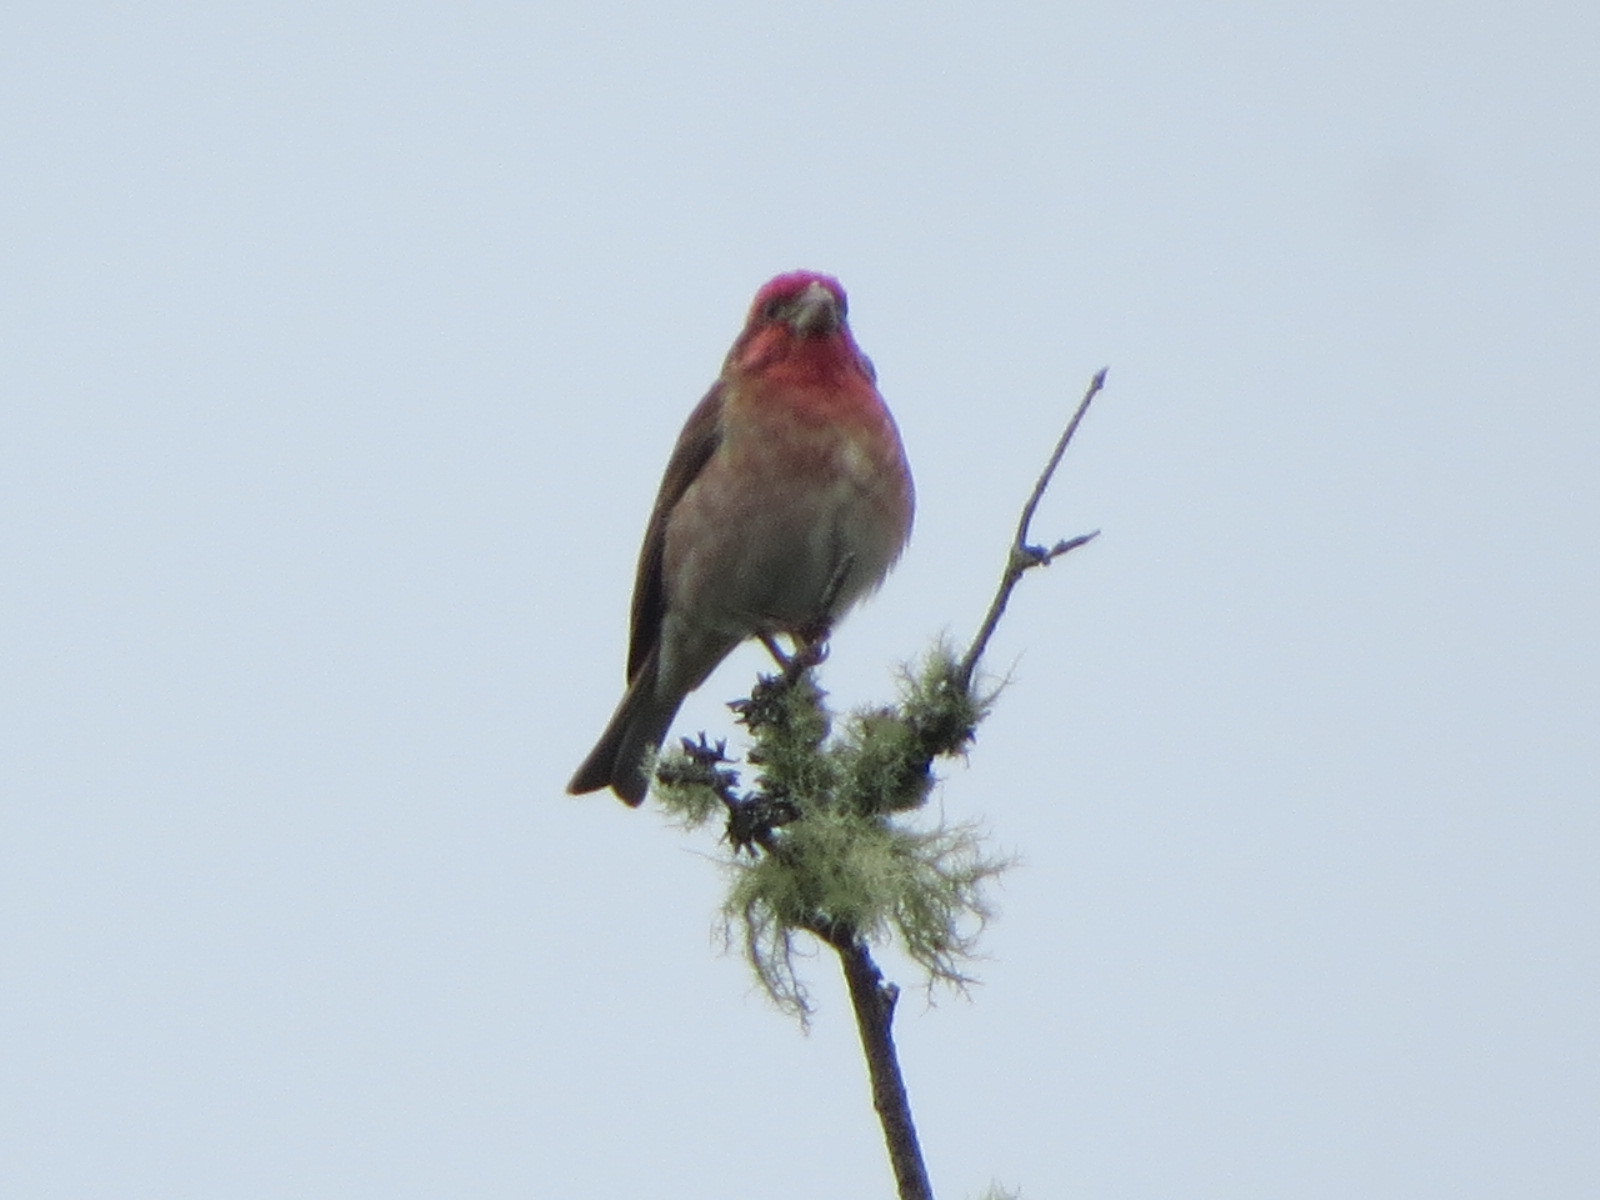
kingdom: Animalia
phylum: Chordata
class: Aves
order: Passeriformes
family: Fringillidae
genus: Haemorhous
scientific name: Haemorhous purpureus
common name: Purple finch
